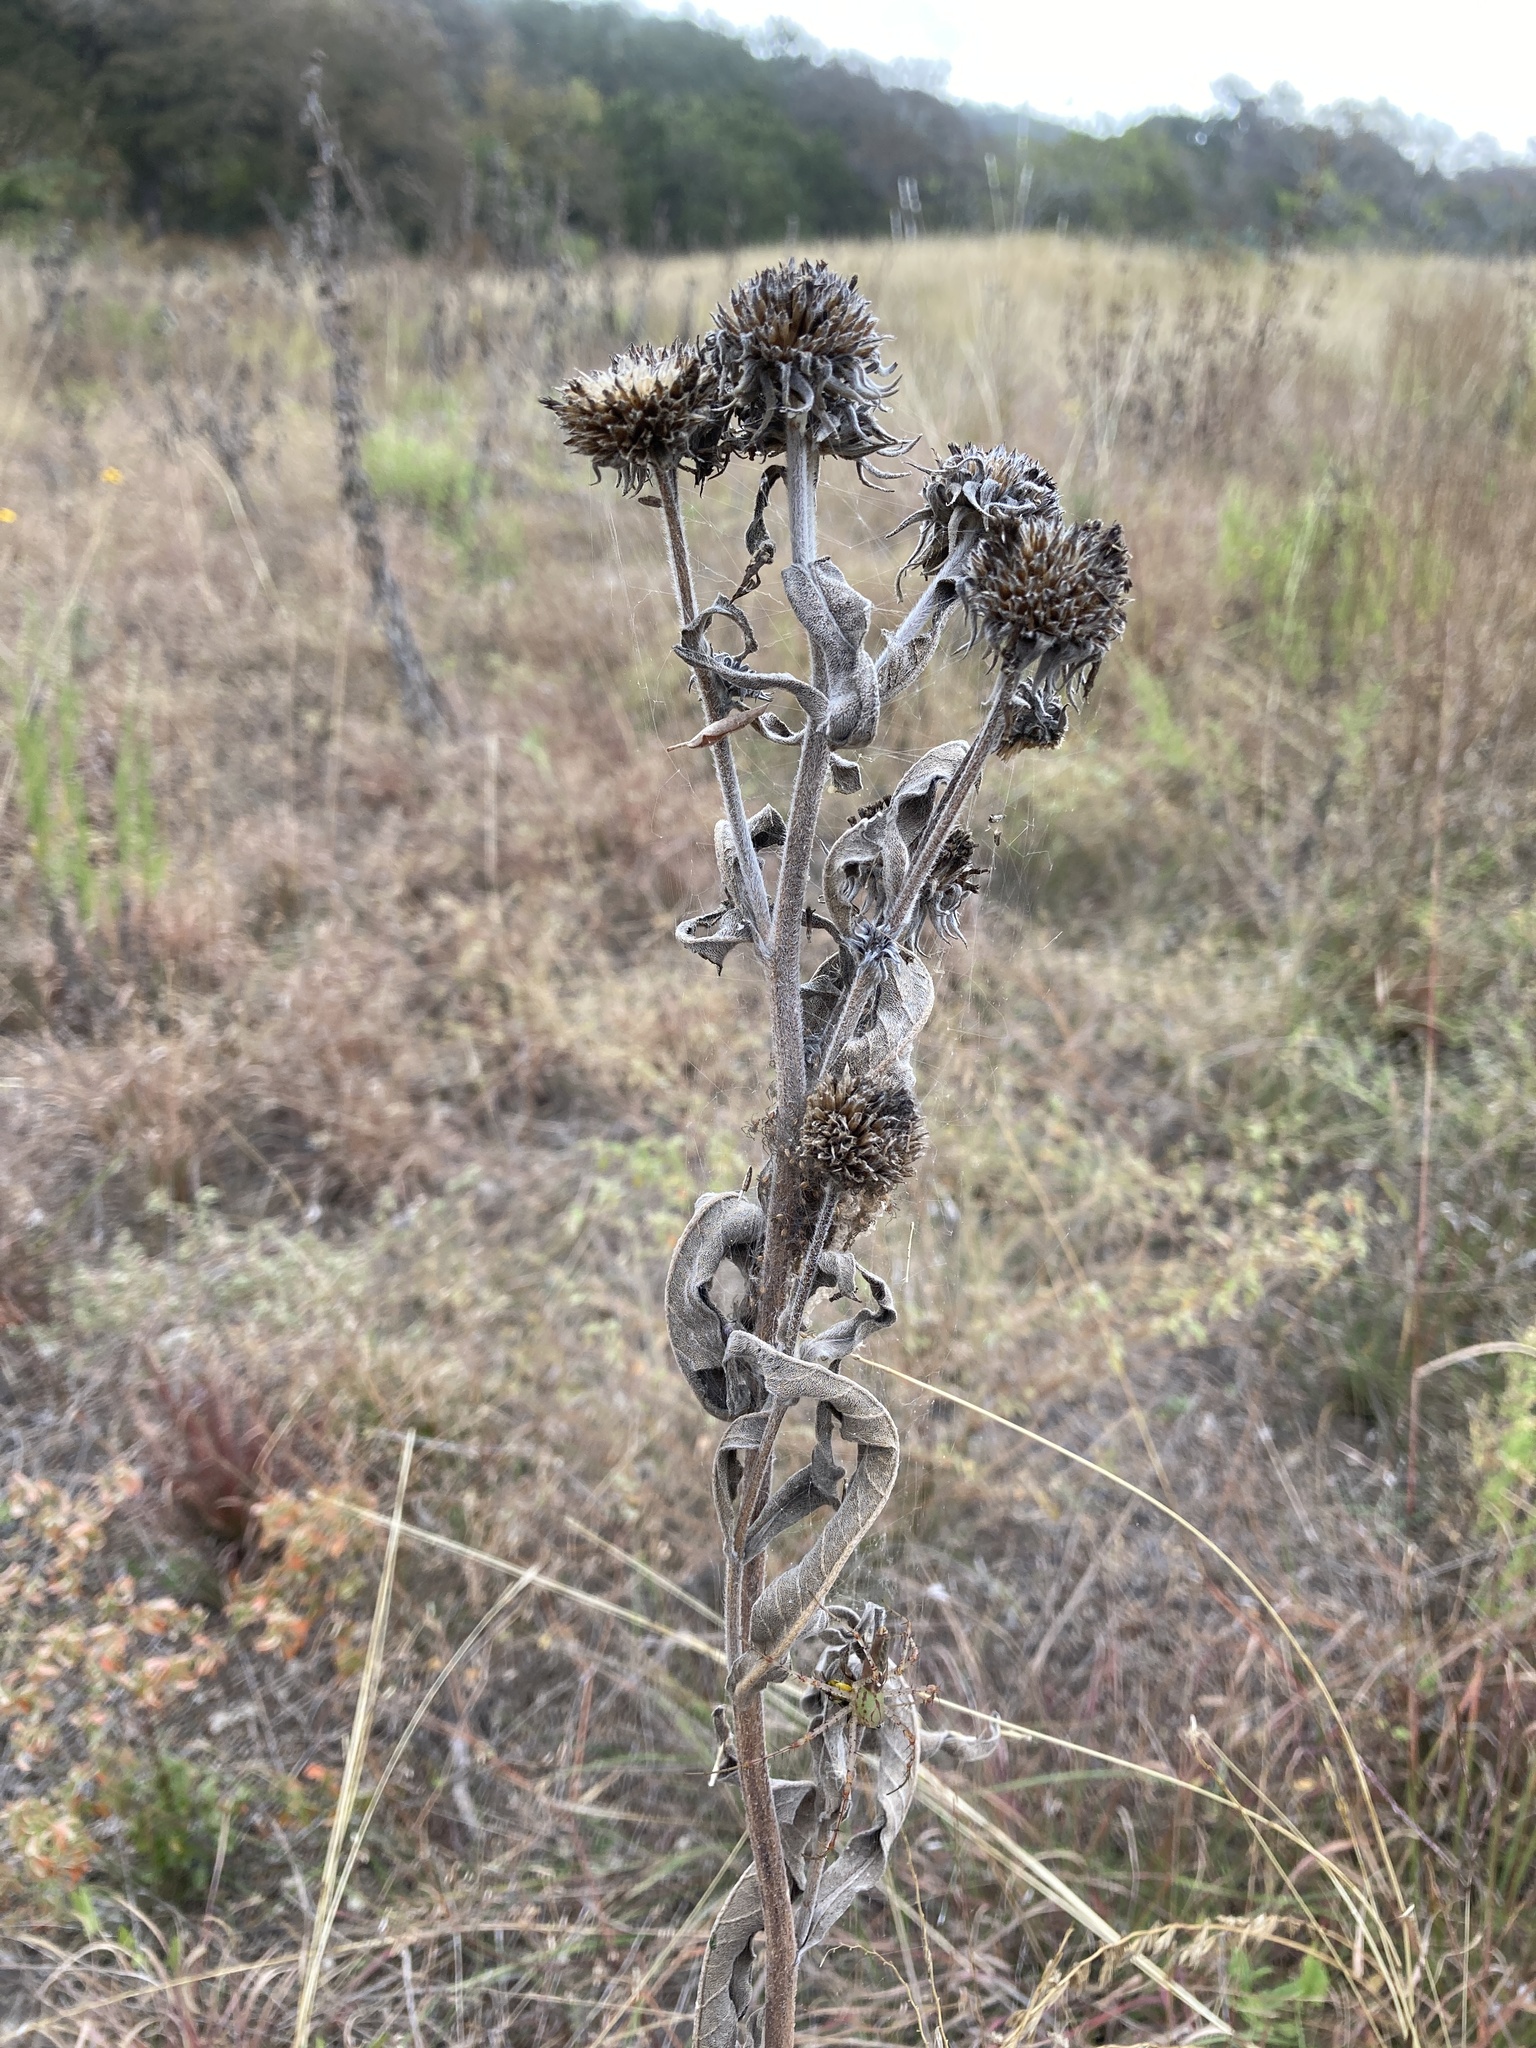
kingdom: Plantae
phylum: Tracheophyta
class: Magnoliopsida
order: Asterales
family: Asteraceae
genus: Helianthus
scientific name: Helianthus maximiliani
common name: Maximilian's sunflower
